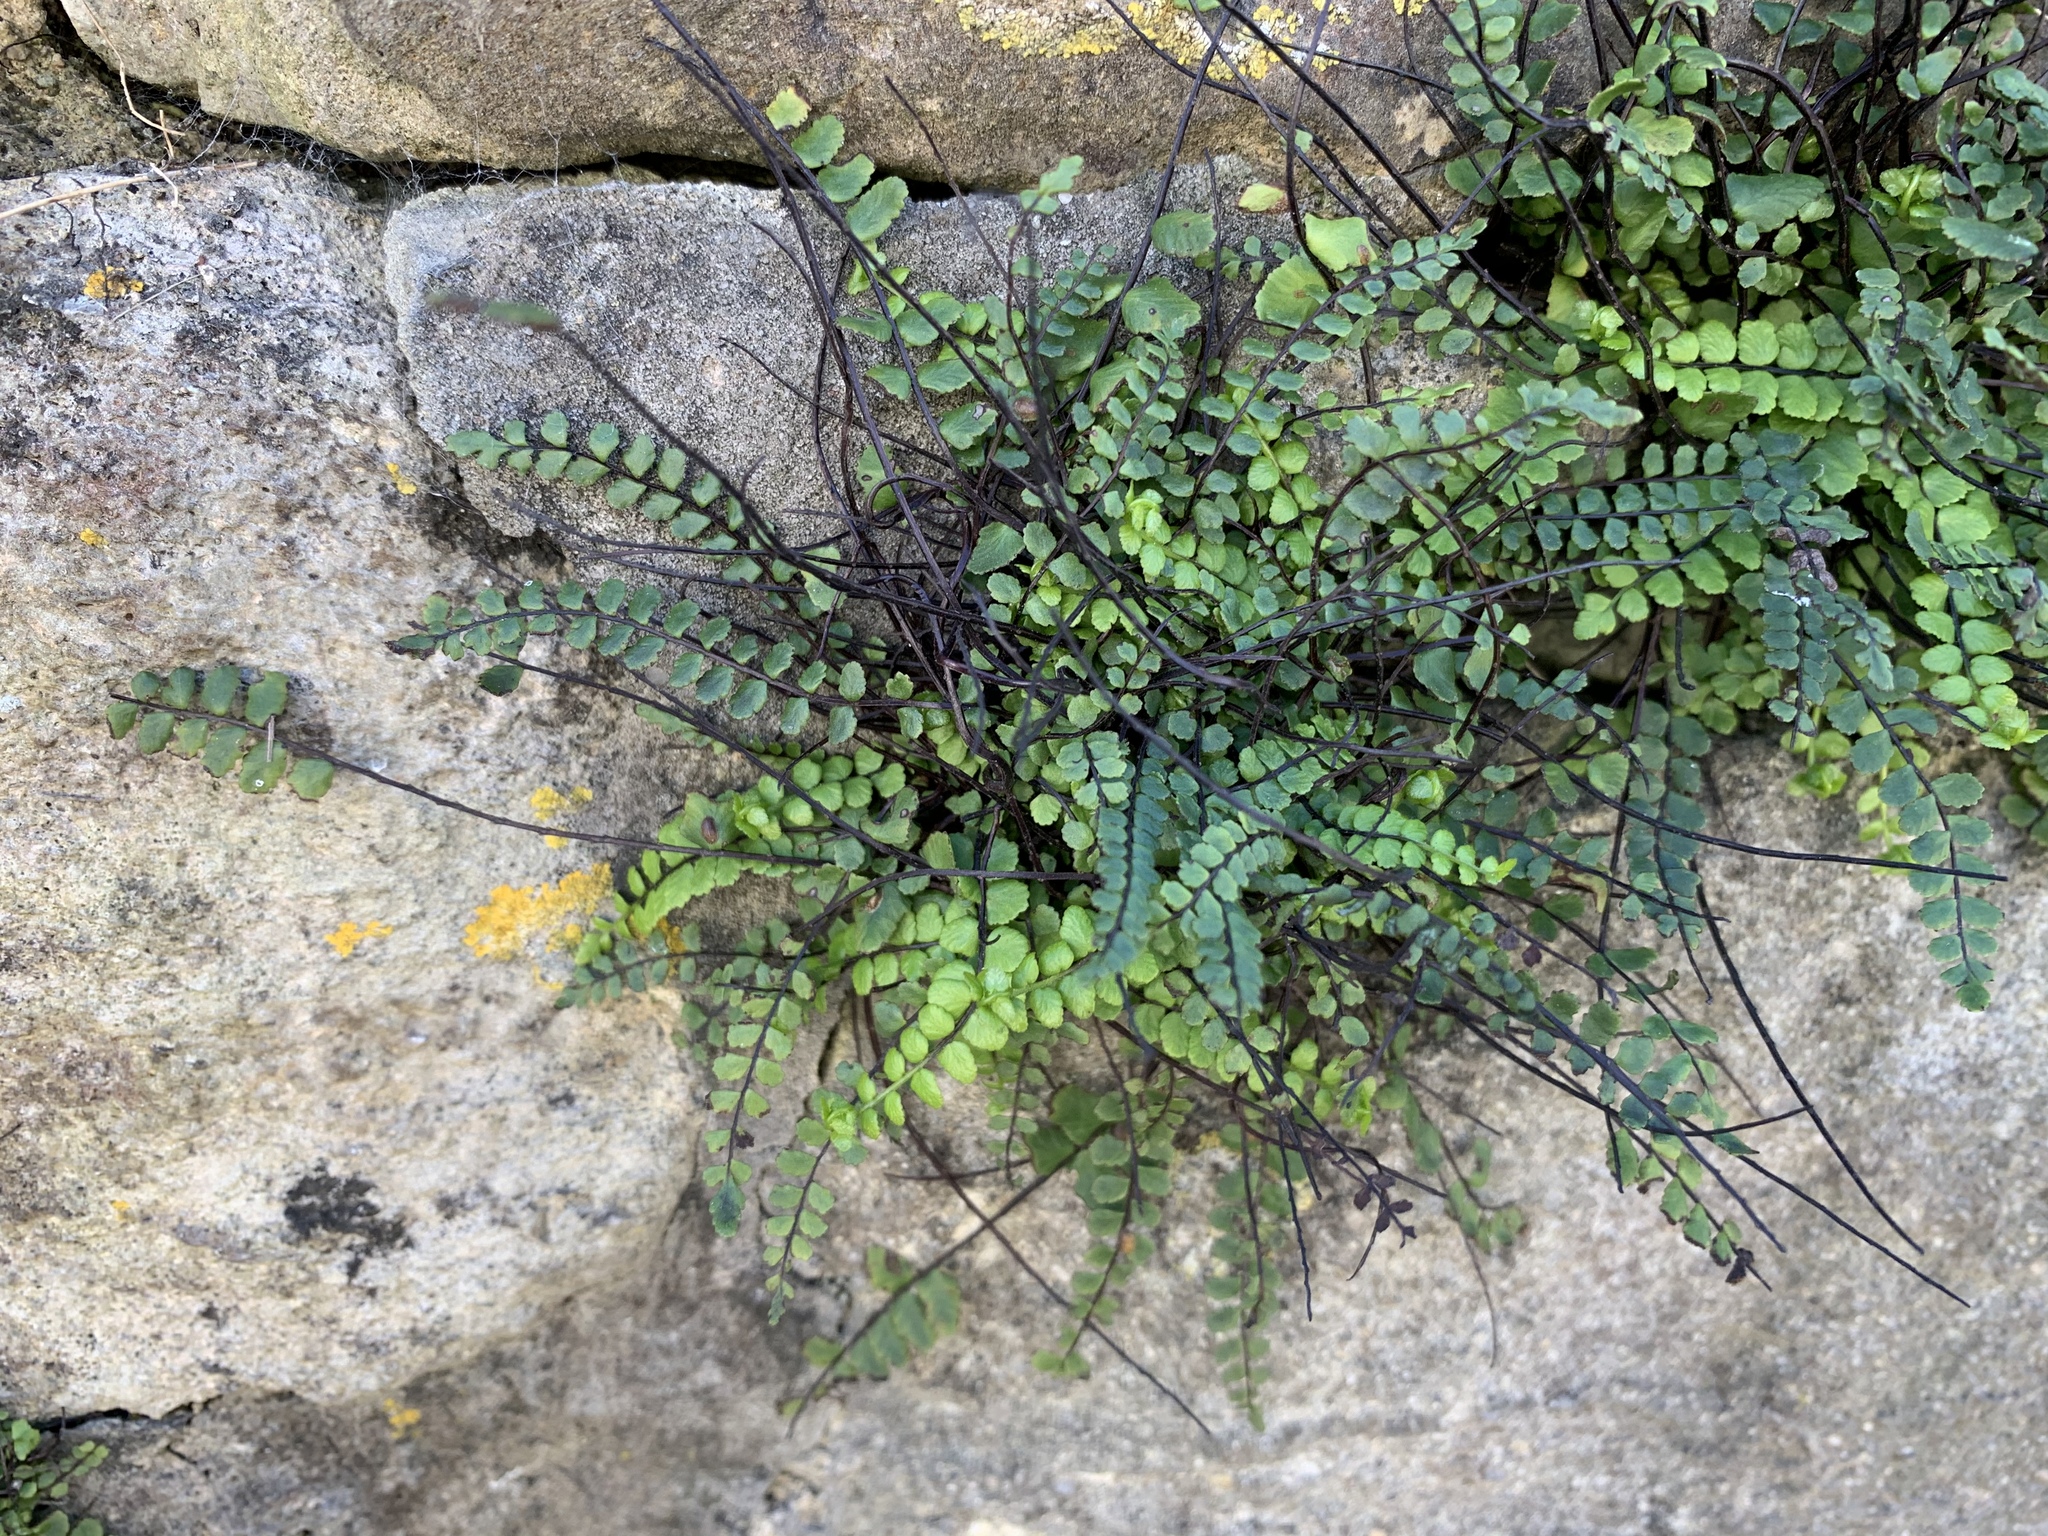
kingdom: Plantae
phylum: Tracheophyta
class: Polypodiopsida
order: Polypodiales
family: Aspleniaceae
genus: Asplenium
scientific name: Asplenium trichomanes
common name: Maidenhair spleenwort
